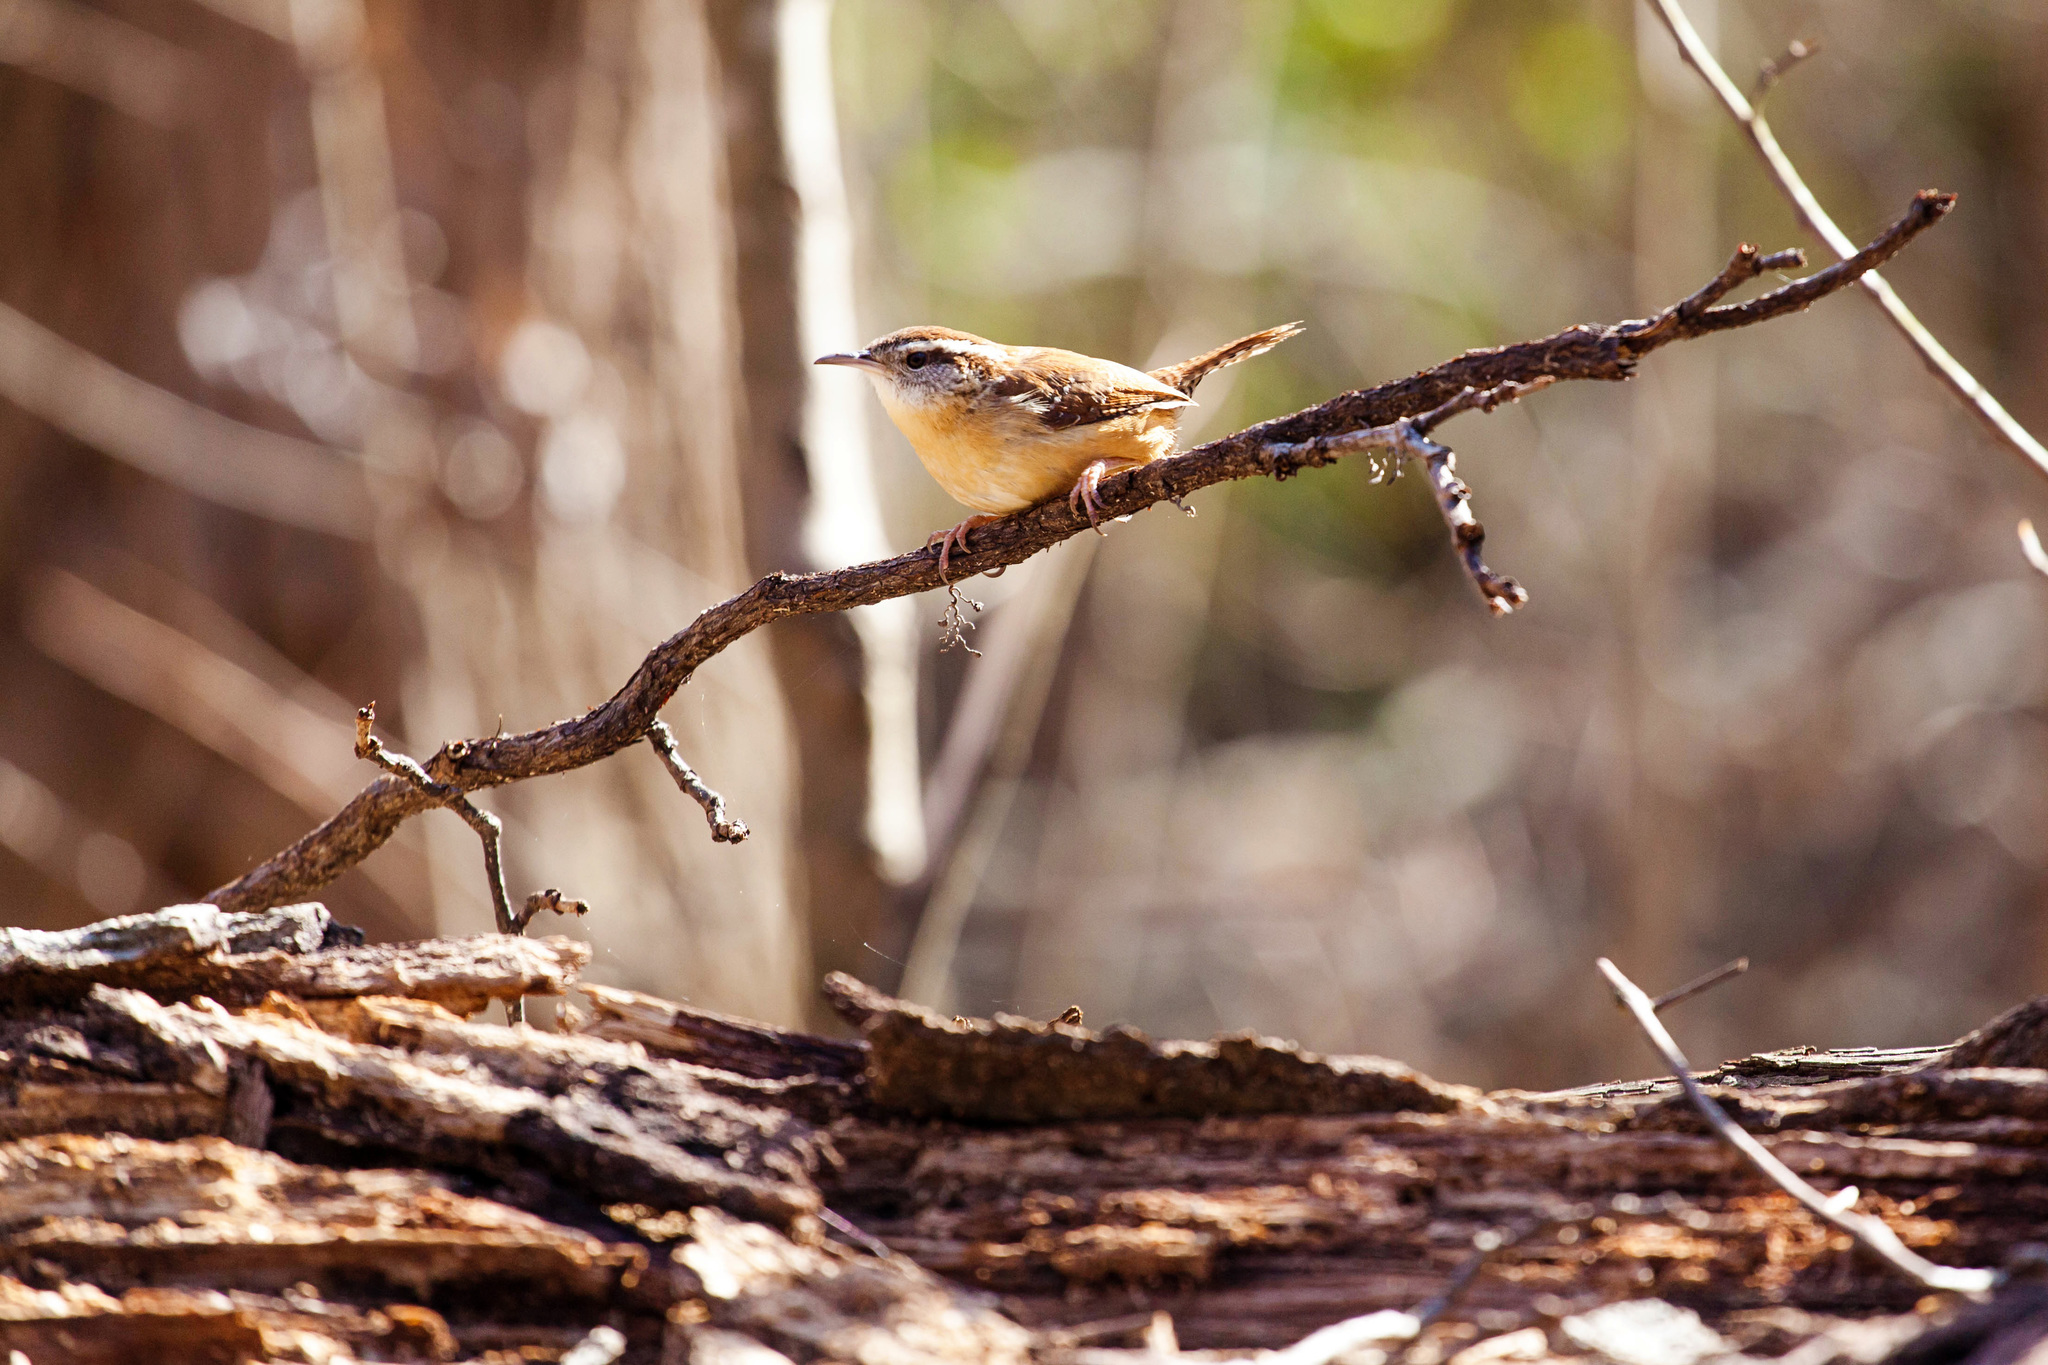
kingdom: Animalia
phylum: Chordata
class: Aves
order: Passeriformes
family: Troglodytidae
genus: Thryothorus
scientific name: Thryothorus ludovicianus
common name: Carolina wren
